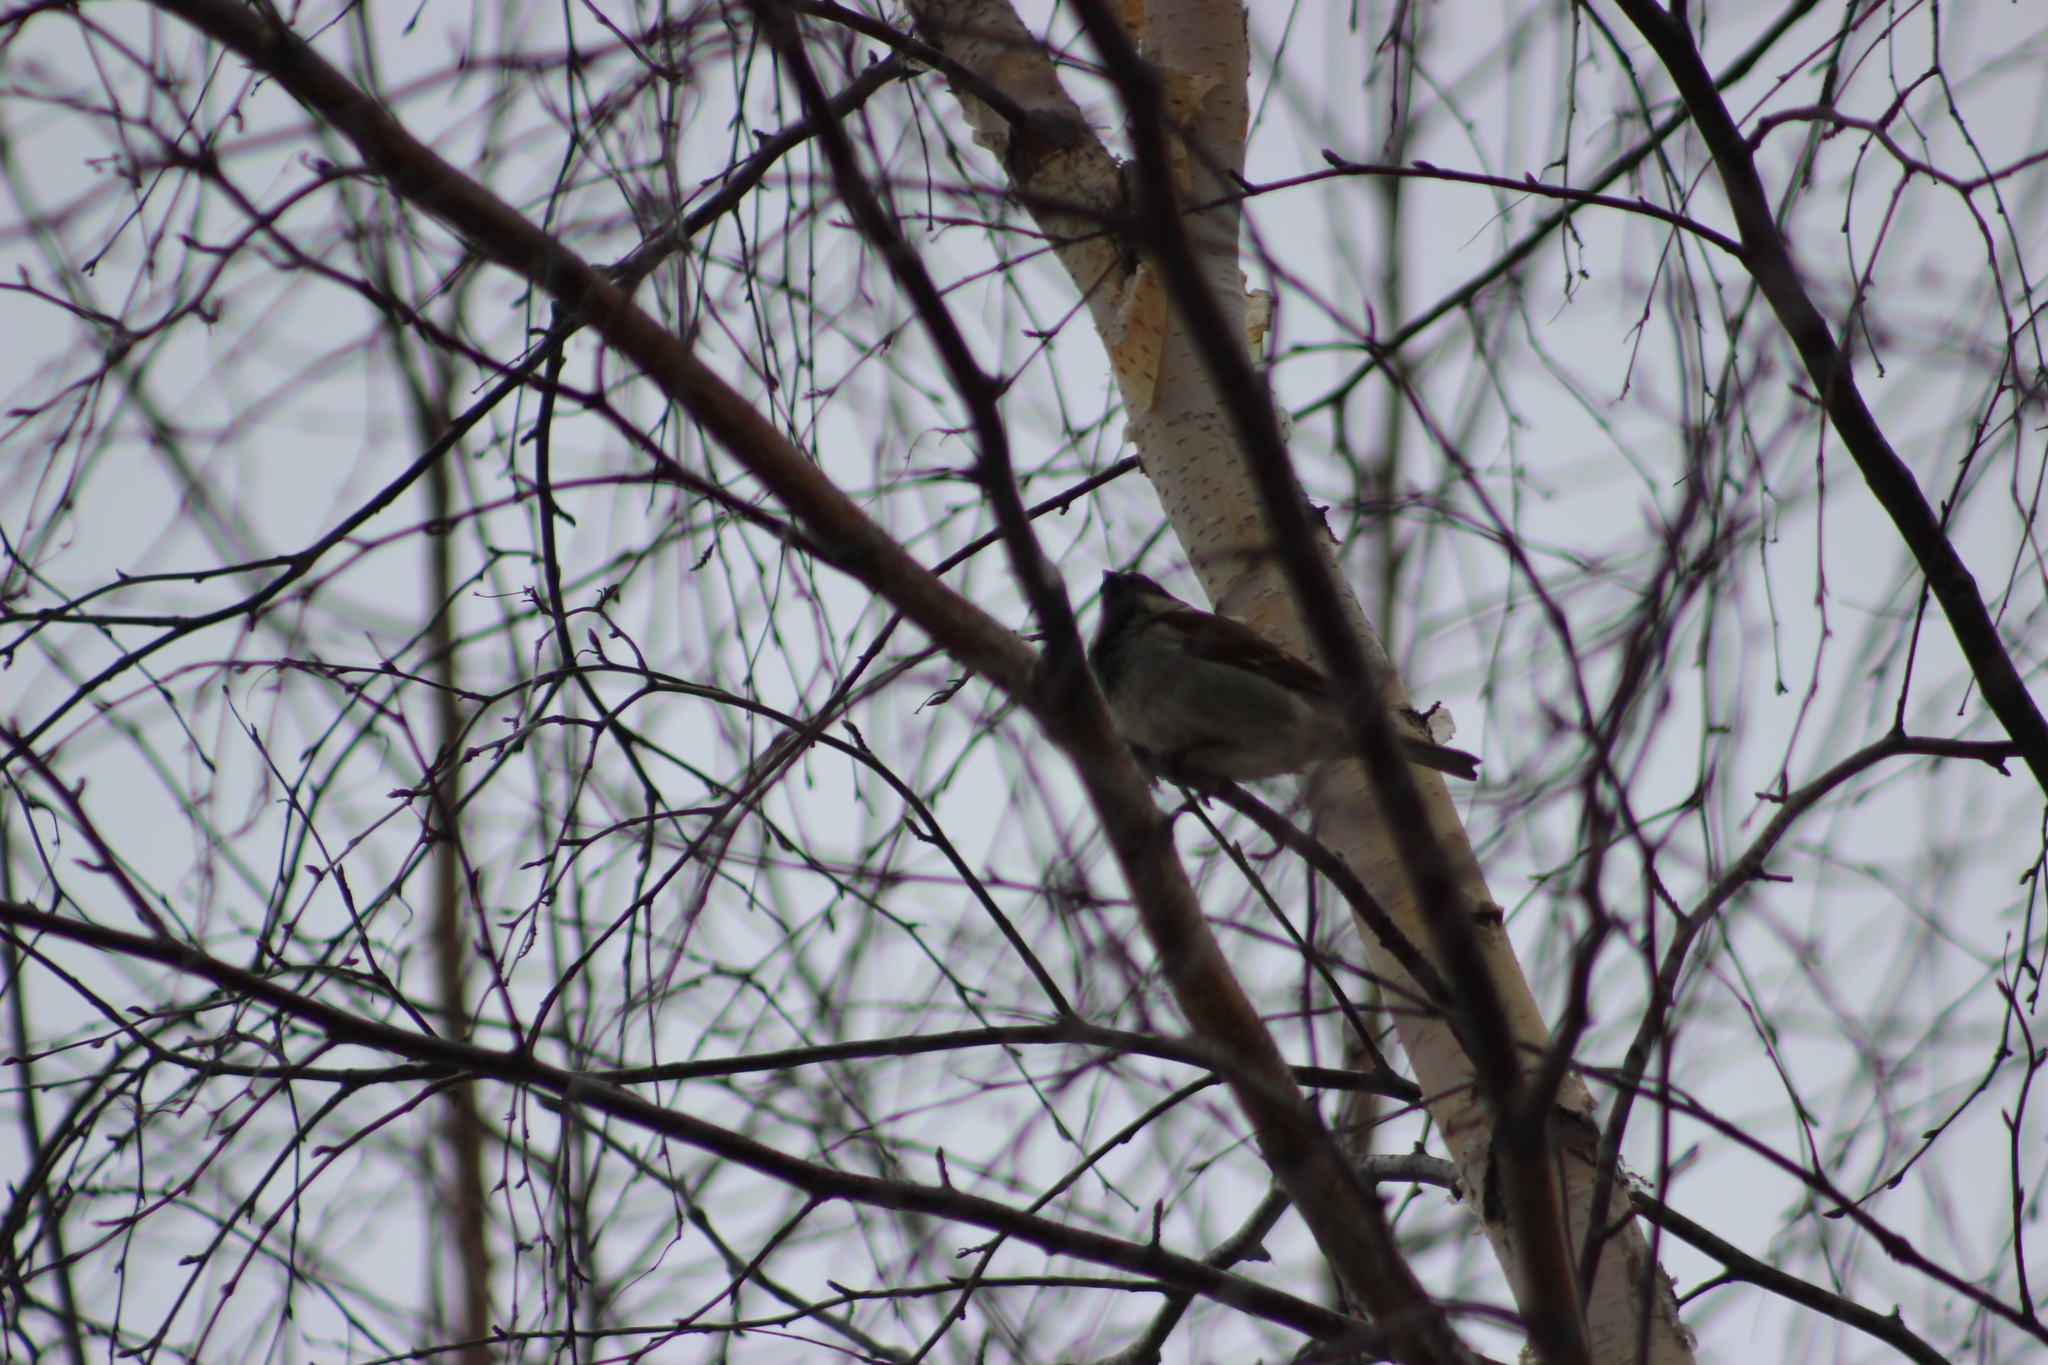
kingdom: Animalia
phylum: Chordata
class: Aves
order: Passeriformes
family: Passeridae
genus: Passer
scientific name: Passer domesticus
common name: House sparrow
